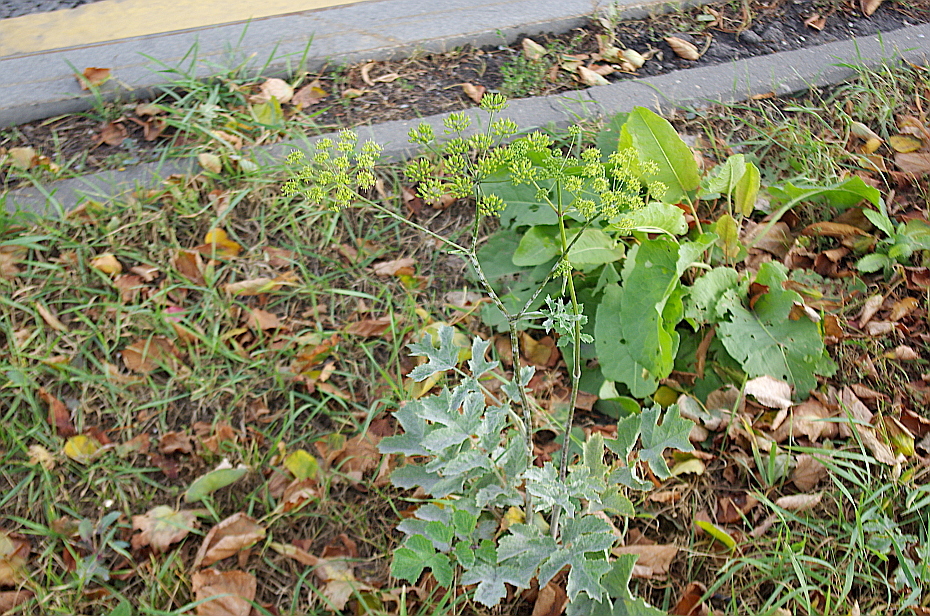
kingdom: Plantae
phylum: Tracheophyta
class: Magnoliopsida
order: Apiales
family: Apiaceae
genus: Heracleum
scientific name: Heracleum sphondylium
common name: Hogweed
